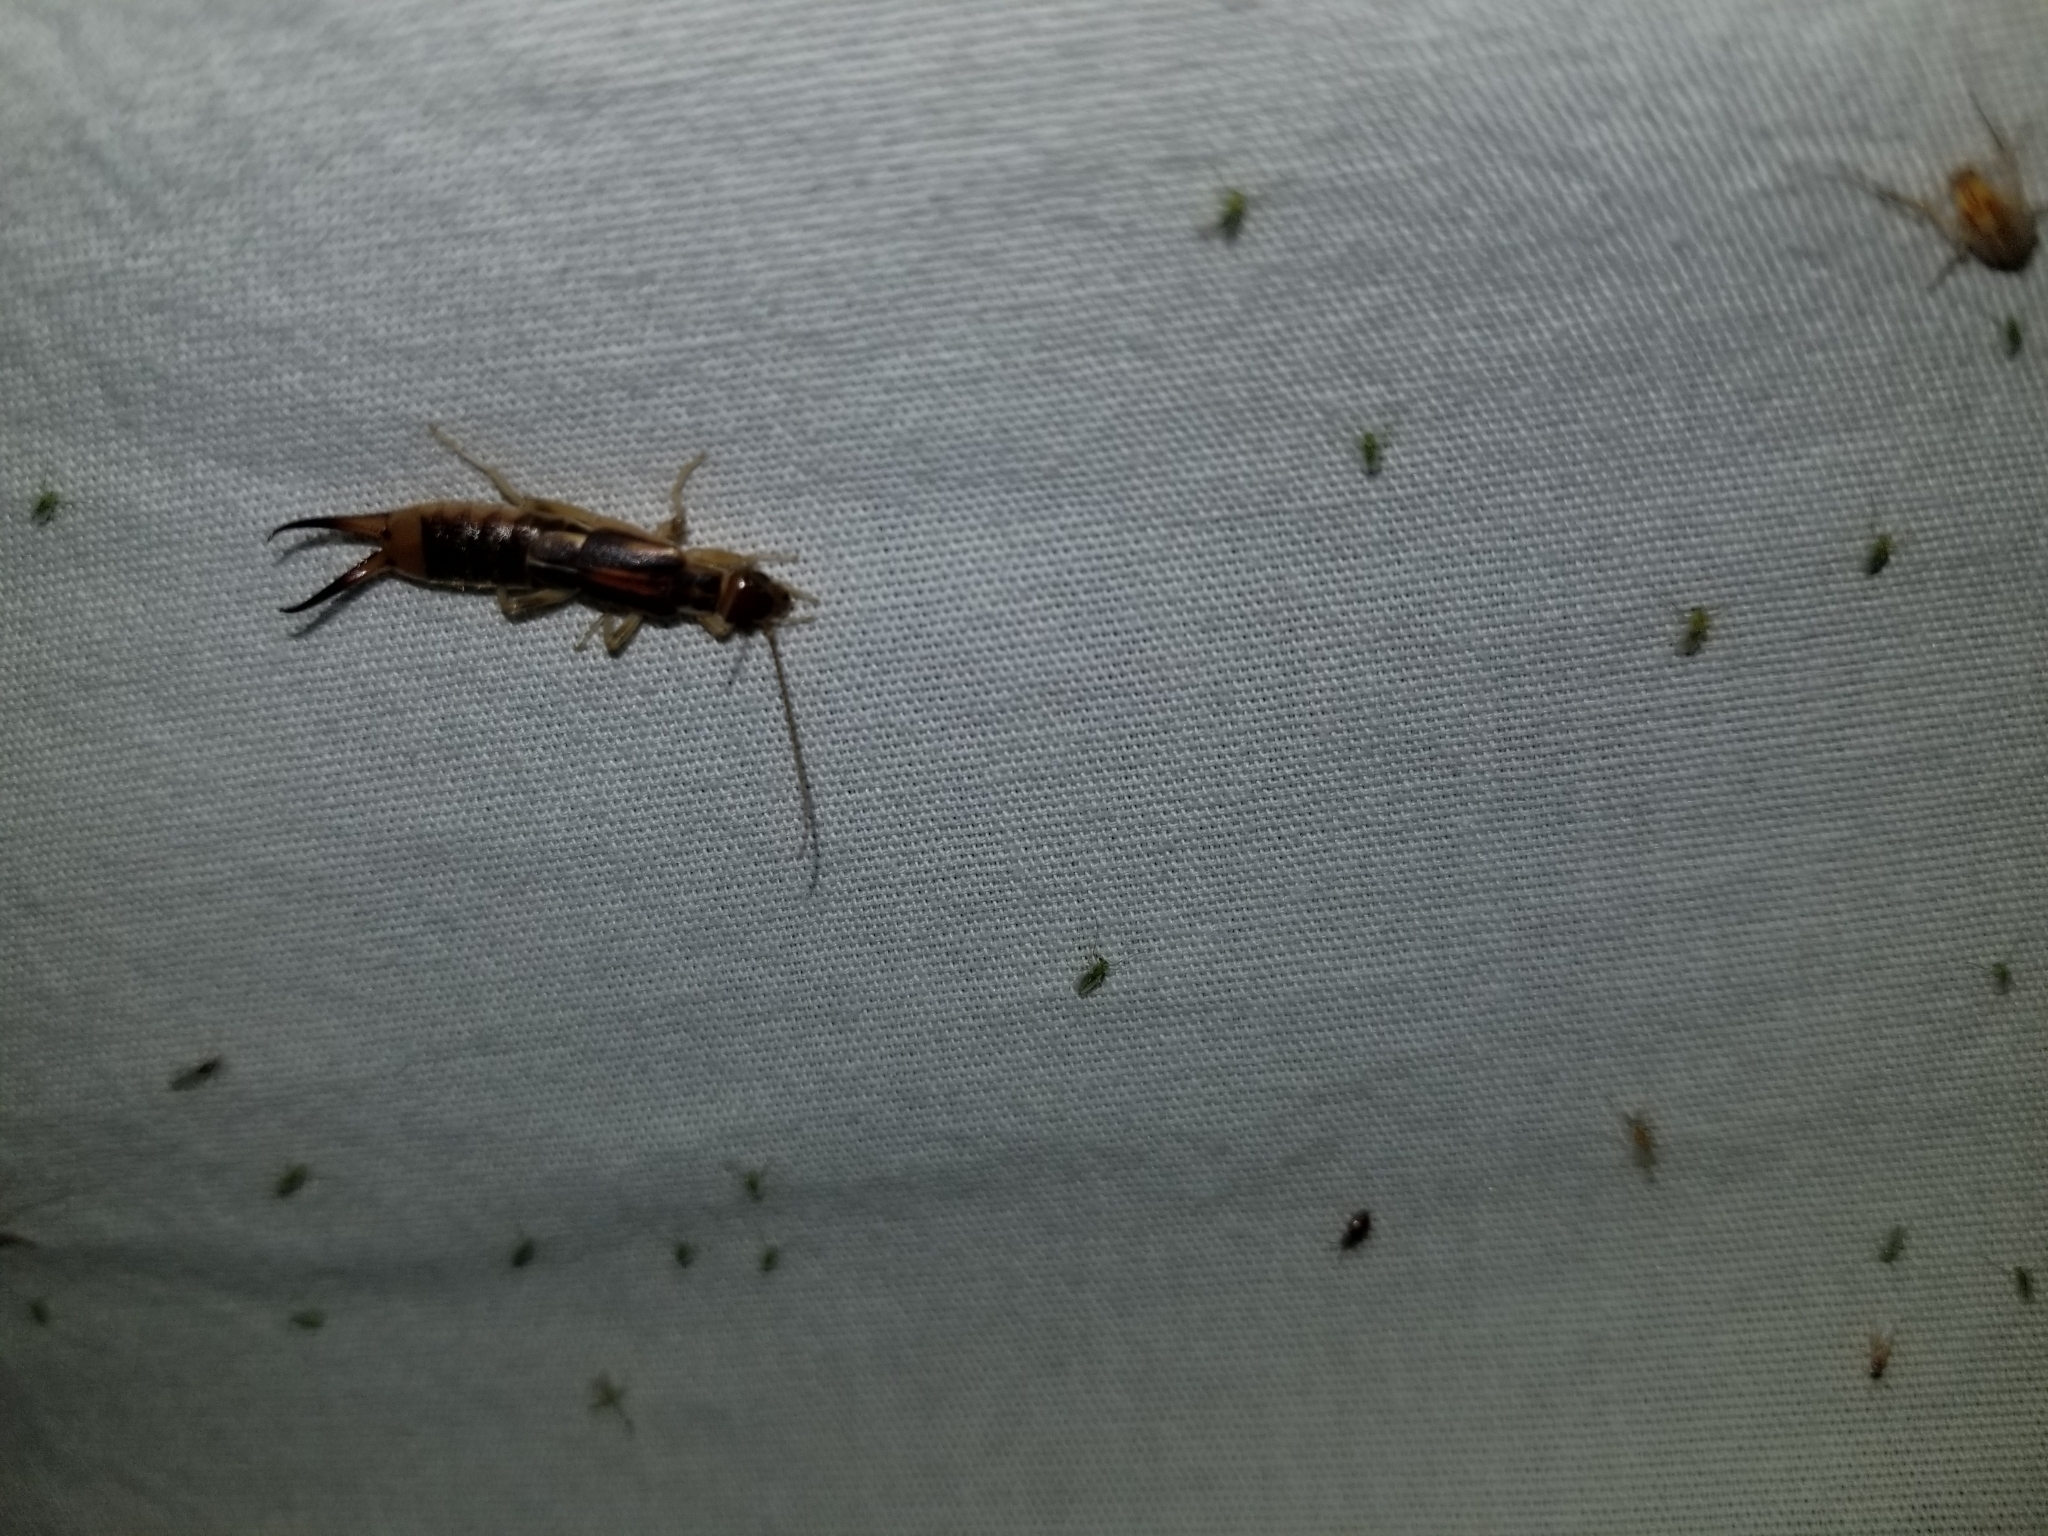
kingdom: Animalia
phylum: Arthropoda
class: Insecta
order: Dermaptera
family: Labiduridae
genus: Labidura
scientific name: Labidura riparia
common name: Striped earwig
